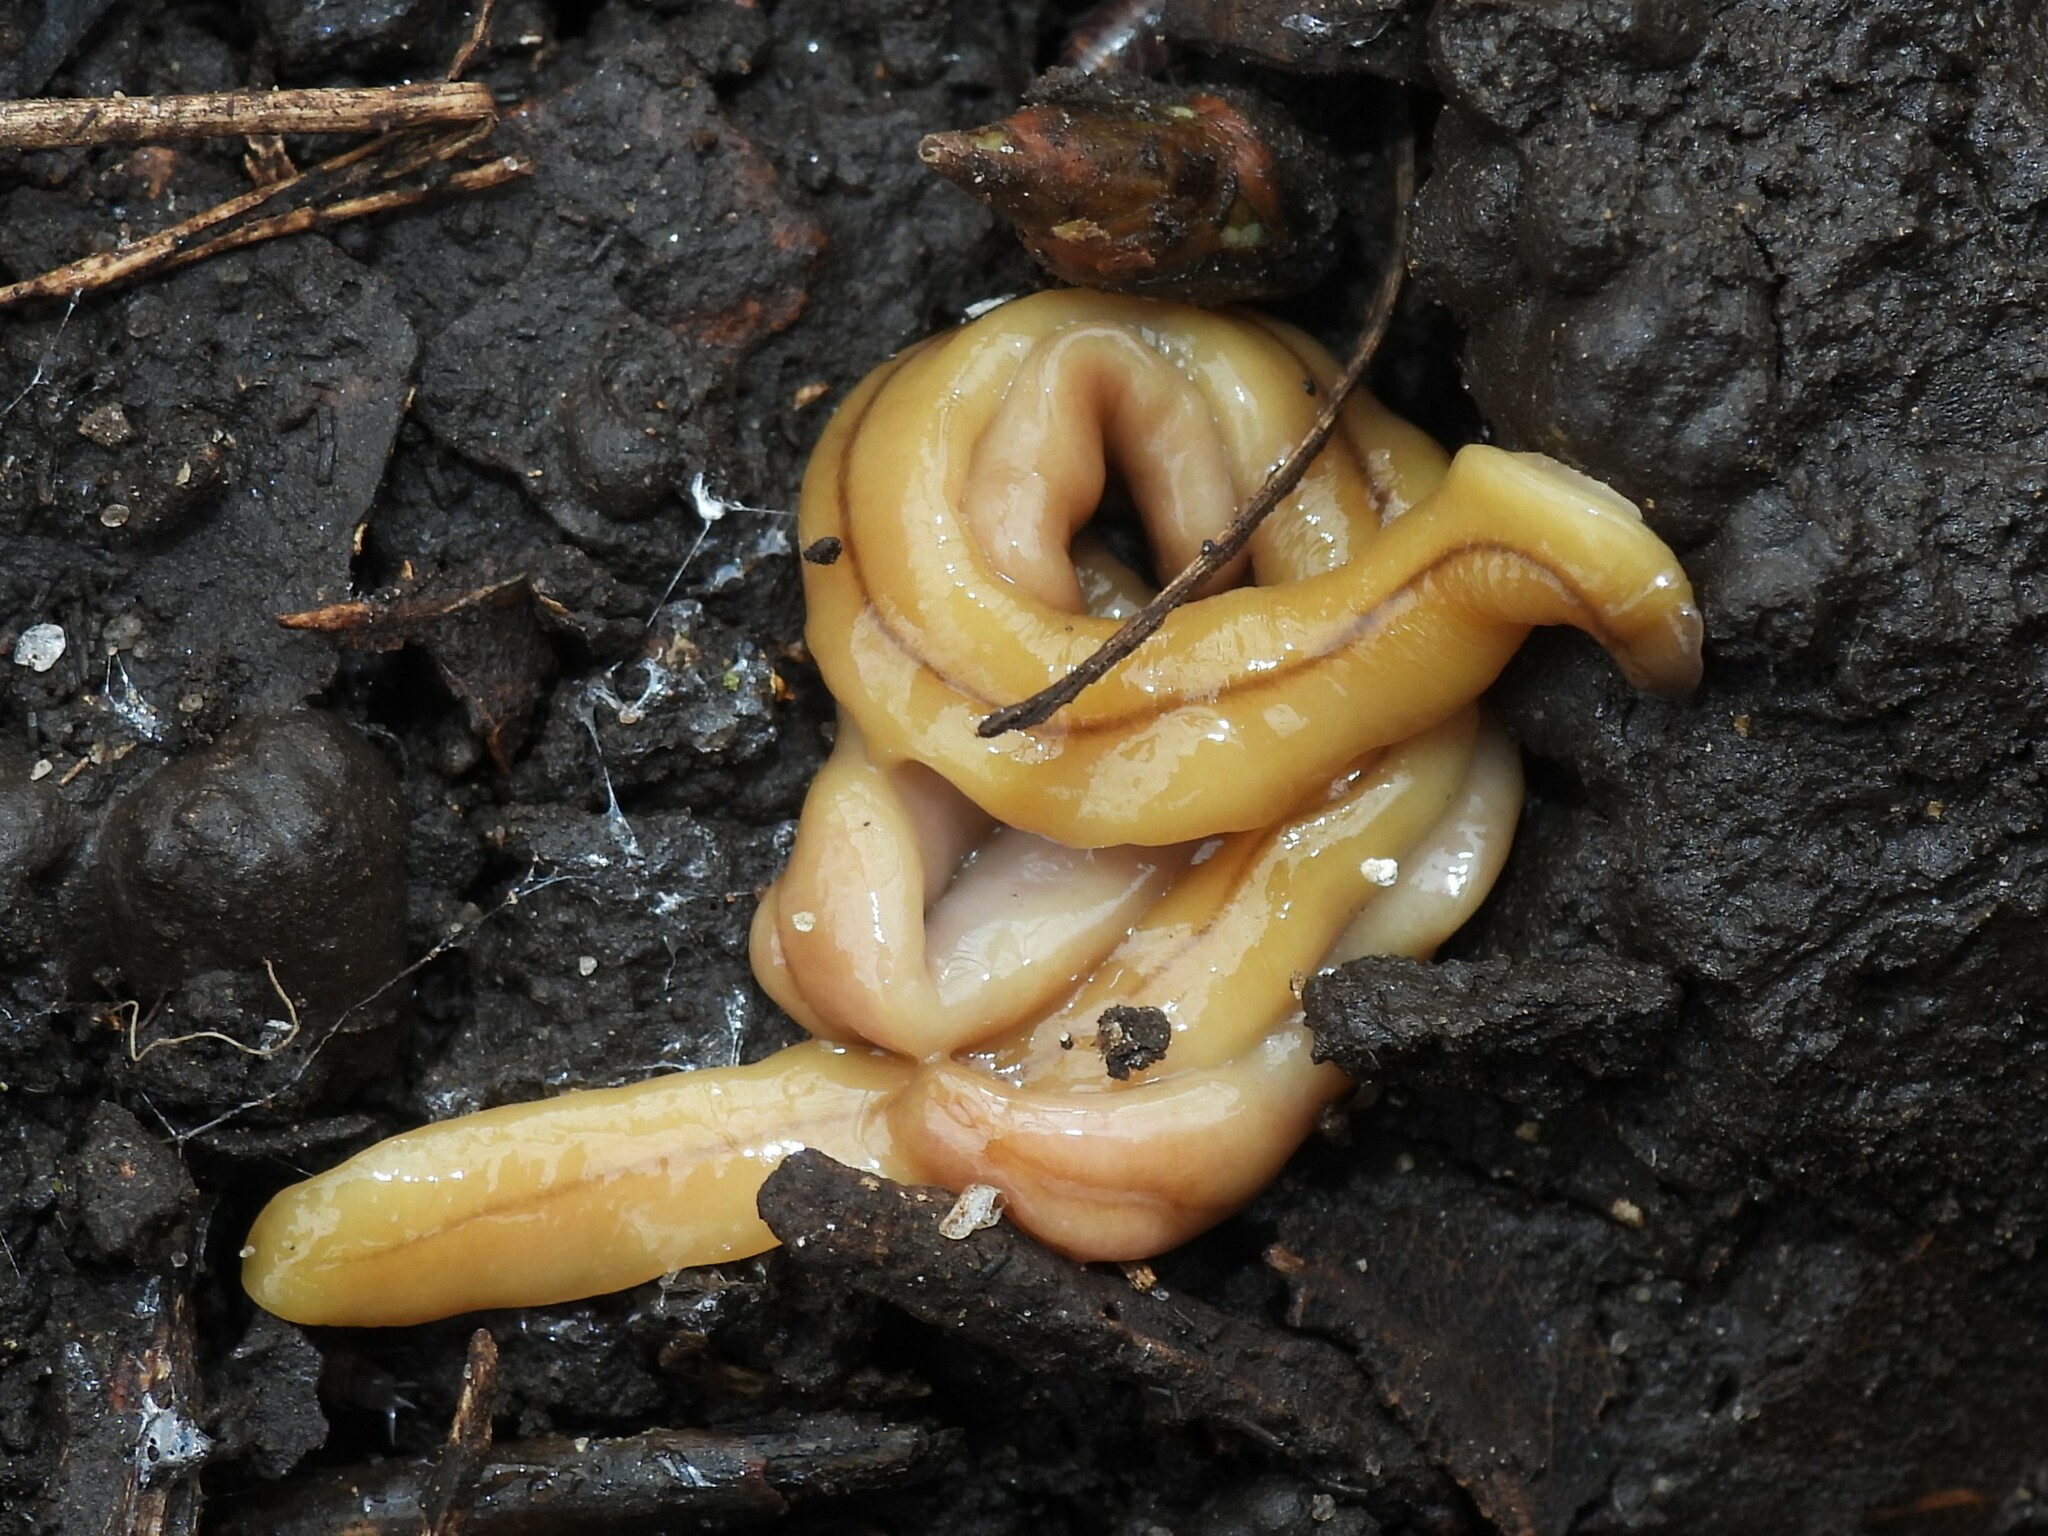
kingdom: Animalia
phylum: Platyhelminthes
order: Tricladida
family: Geoplanidae
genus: Bipalium
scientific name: Bipalium adventitium
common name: Land planarian
